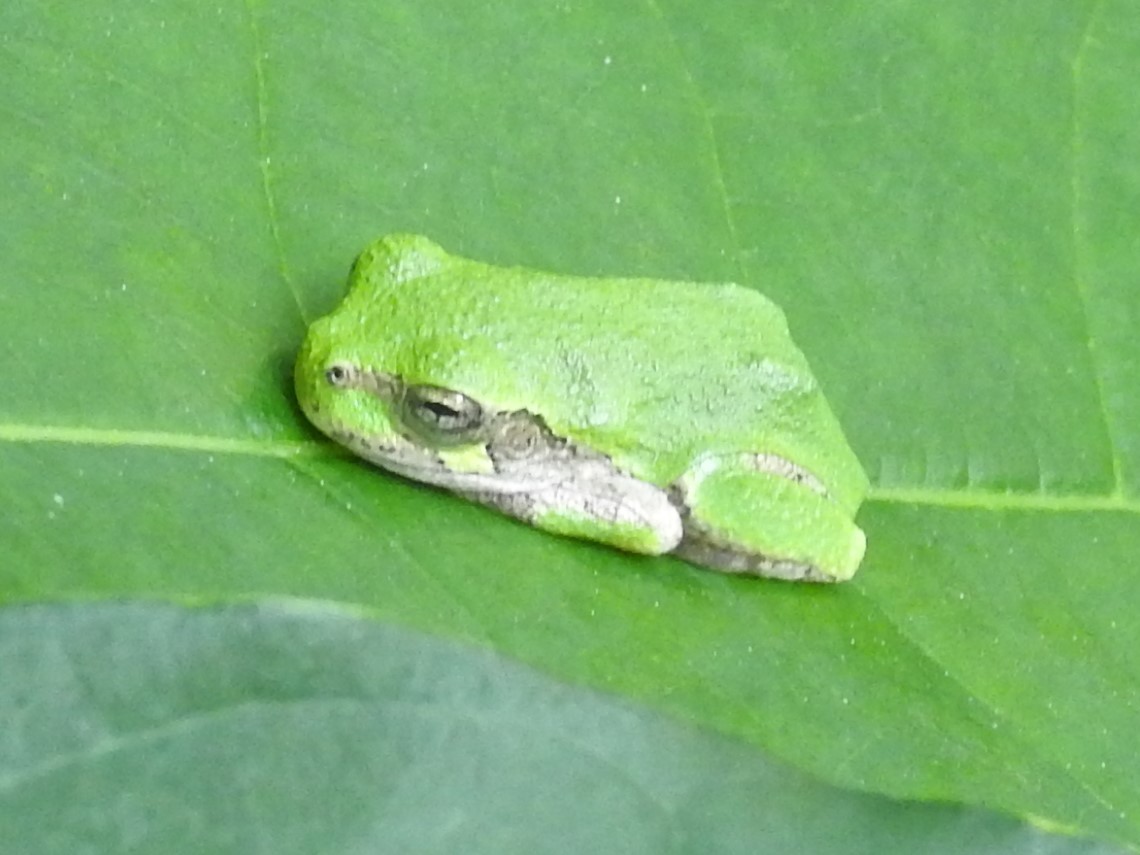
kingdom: Animalia
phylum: Chordata
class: Amphibia
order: Anura
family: Hylidae
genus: Dryophytes
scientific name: Dryophytes versicolor
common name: Gray treefrog
